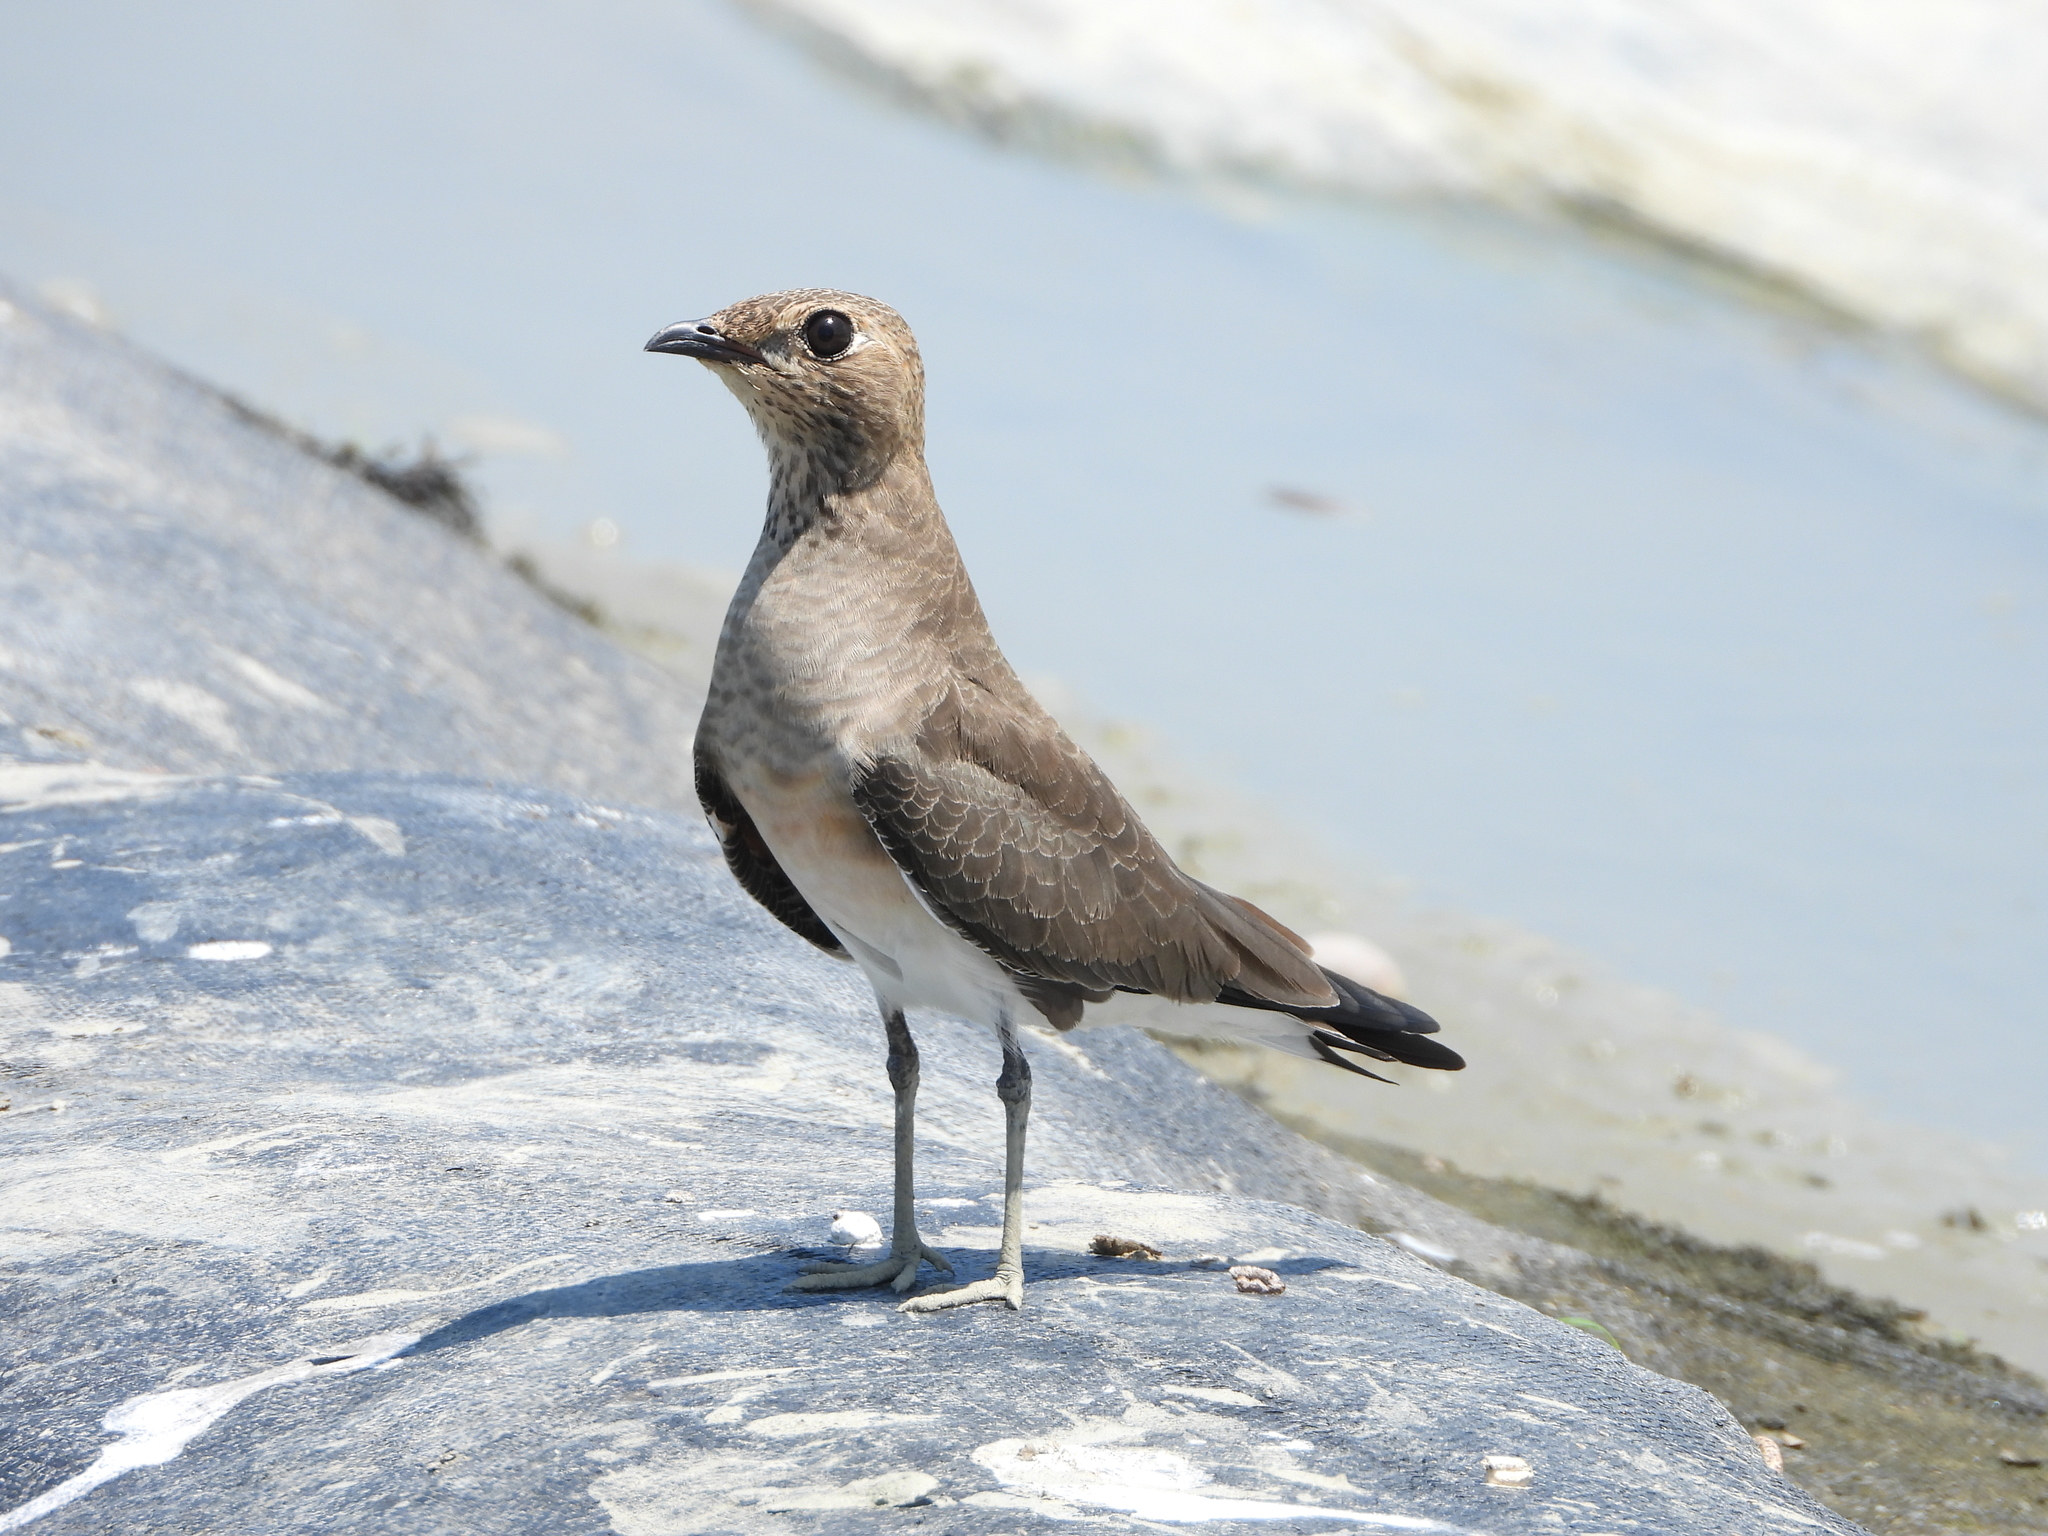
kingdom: Animalia
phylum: Chordata
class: Aves
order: Charadriiformes
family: Glareolidae
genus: Glareola
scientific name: Glareola maldivarum
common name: Oriental pratincole
